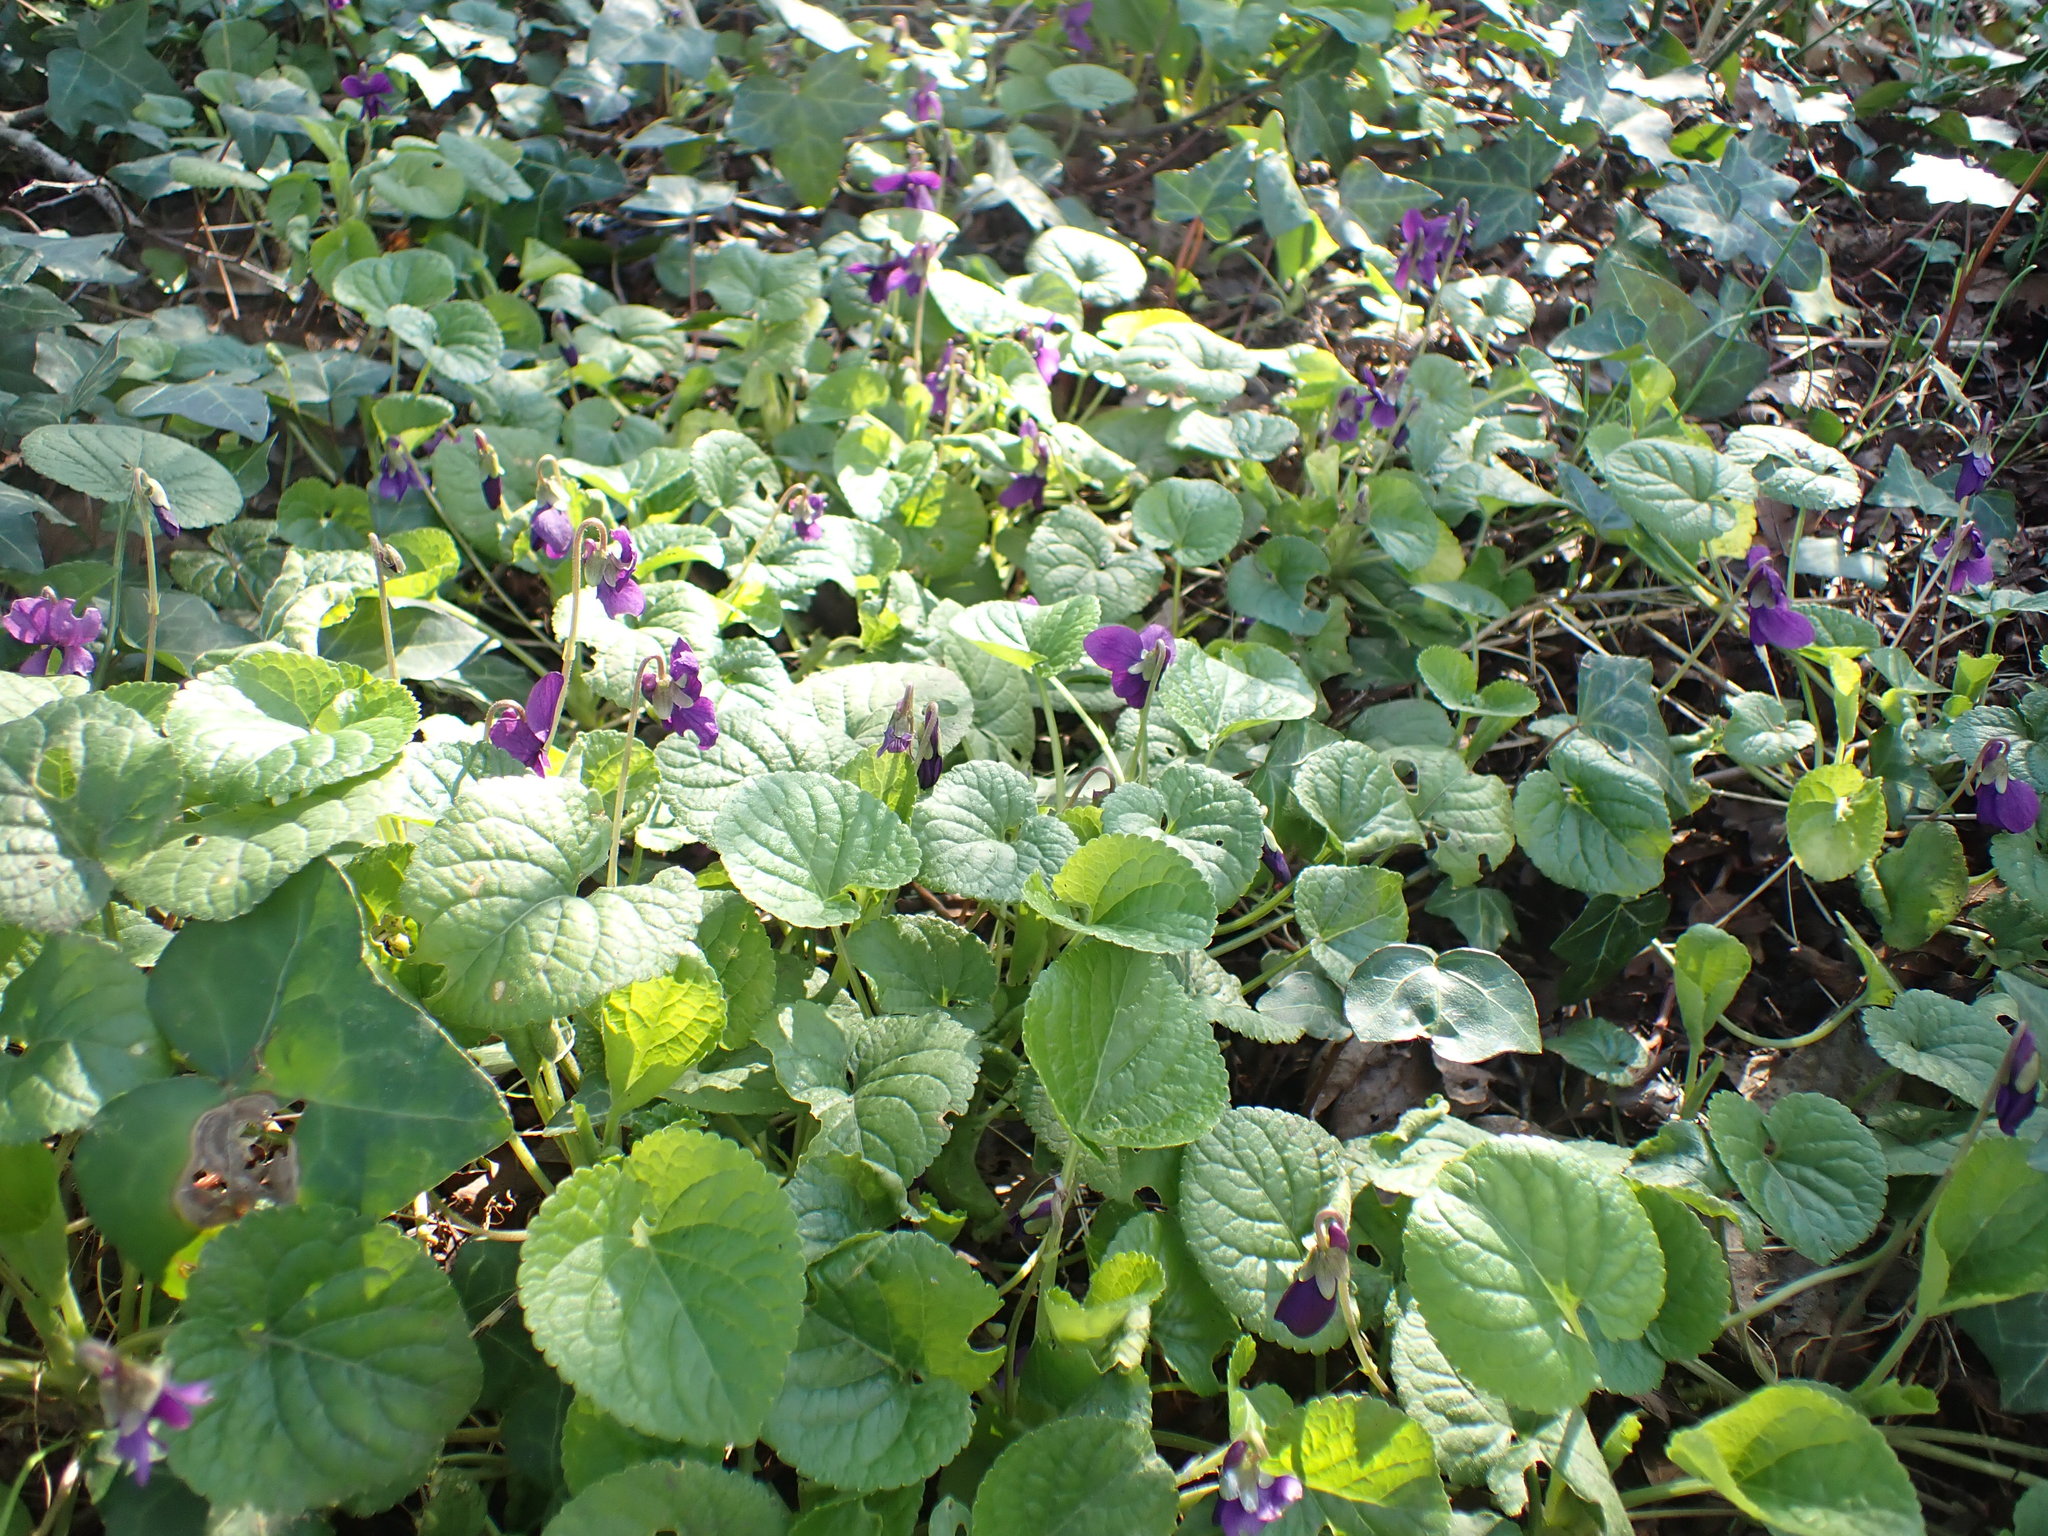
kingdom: Plantae
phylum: Tracheophyta
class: Magnoliopsida
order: Malpighiales
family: Violaceae
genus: Viola
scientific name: Viola odorata
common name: Sweet violet
